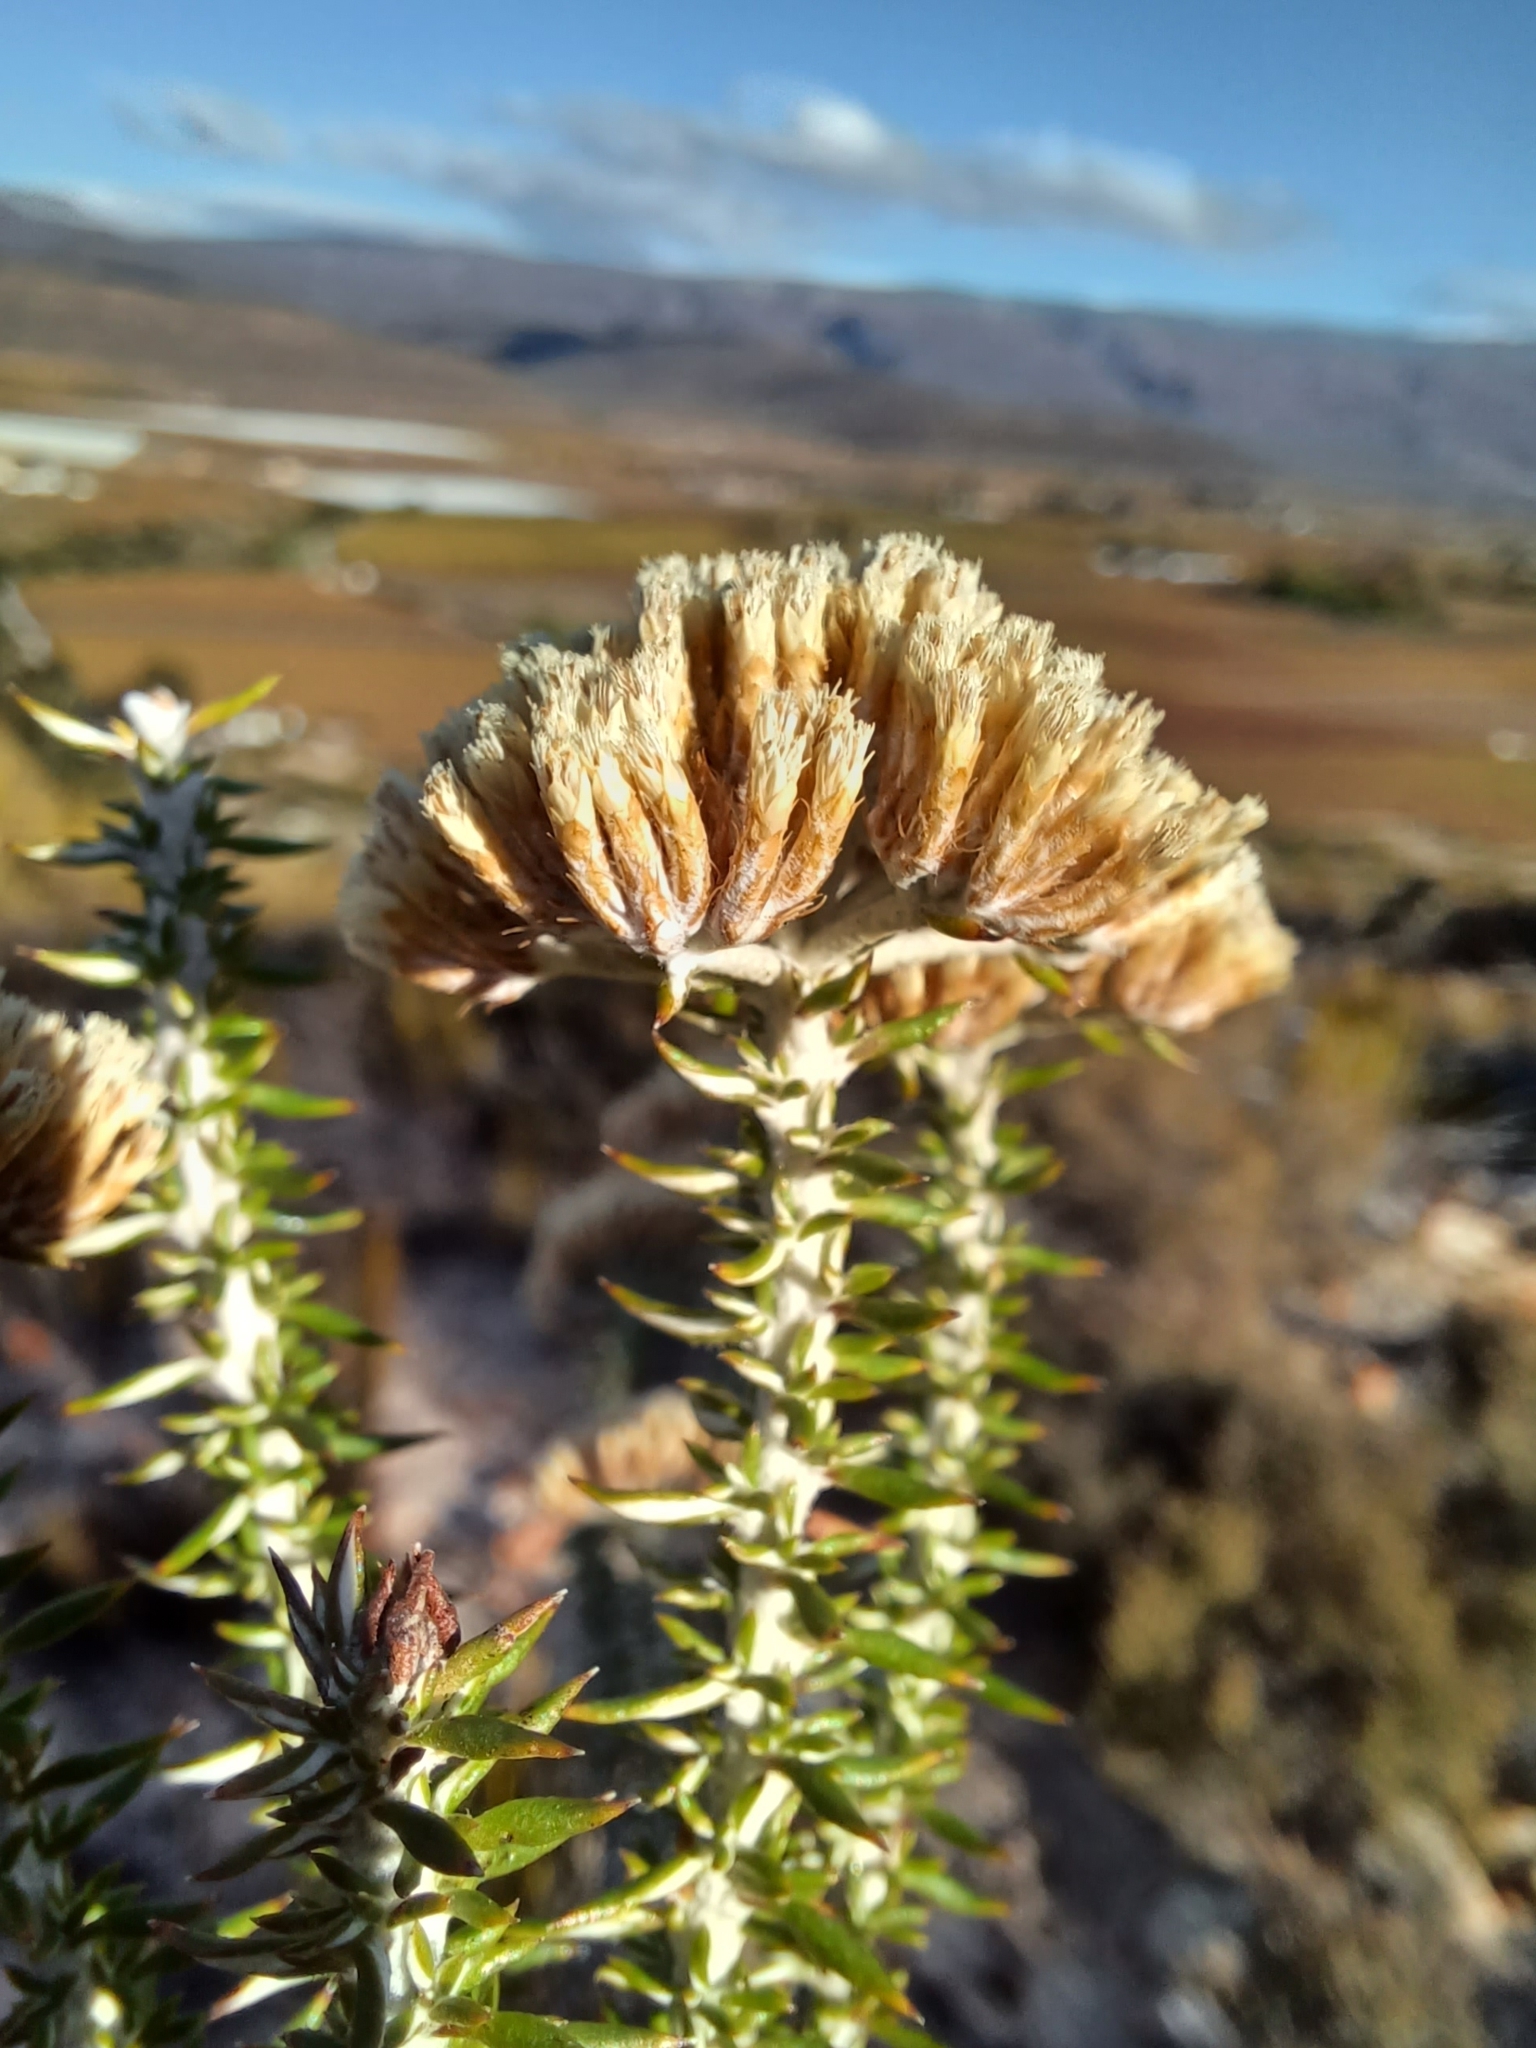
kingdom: Plantae
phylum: Tracheophyta
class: Magnoliopsida
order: Asterales
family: Asteraceae
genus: Metalasia
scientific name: Metalasia dregeana
